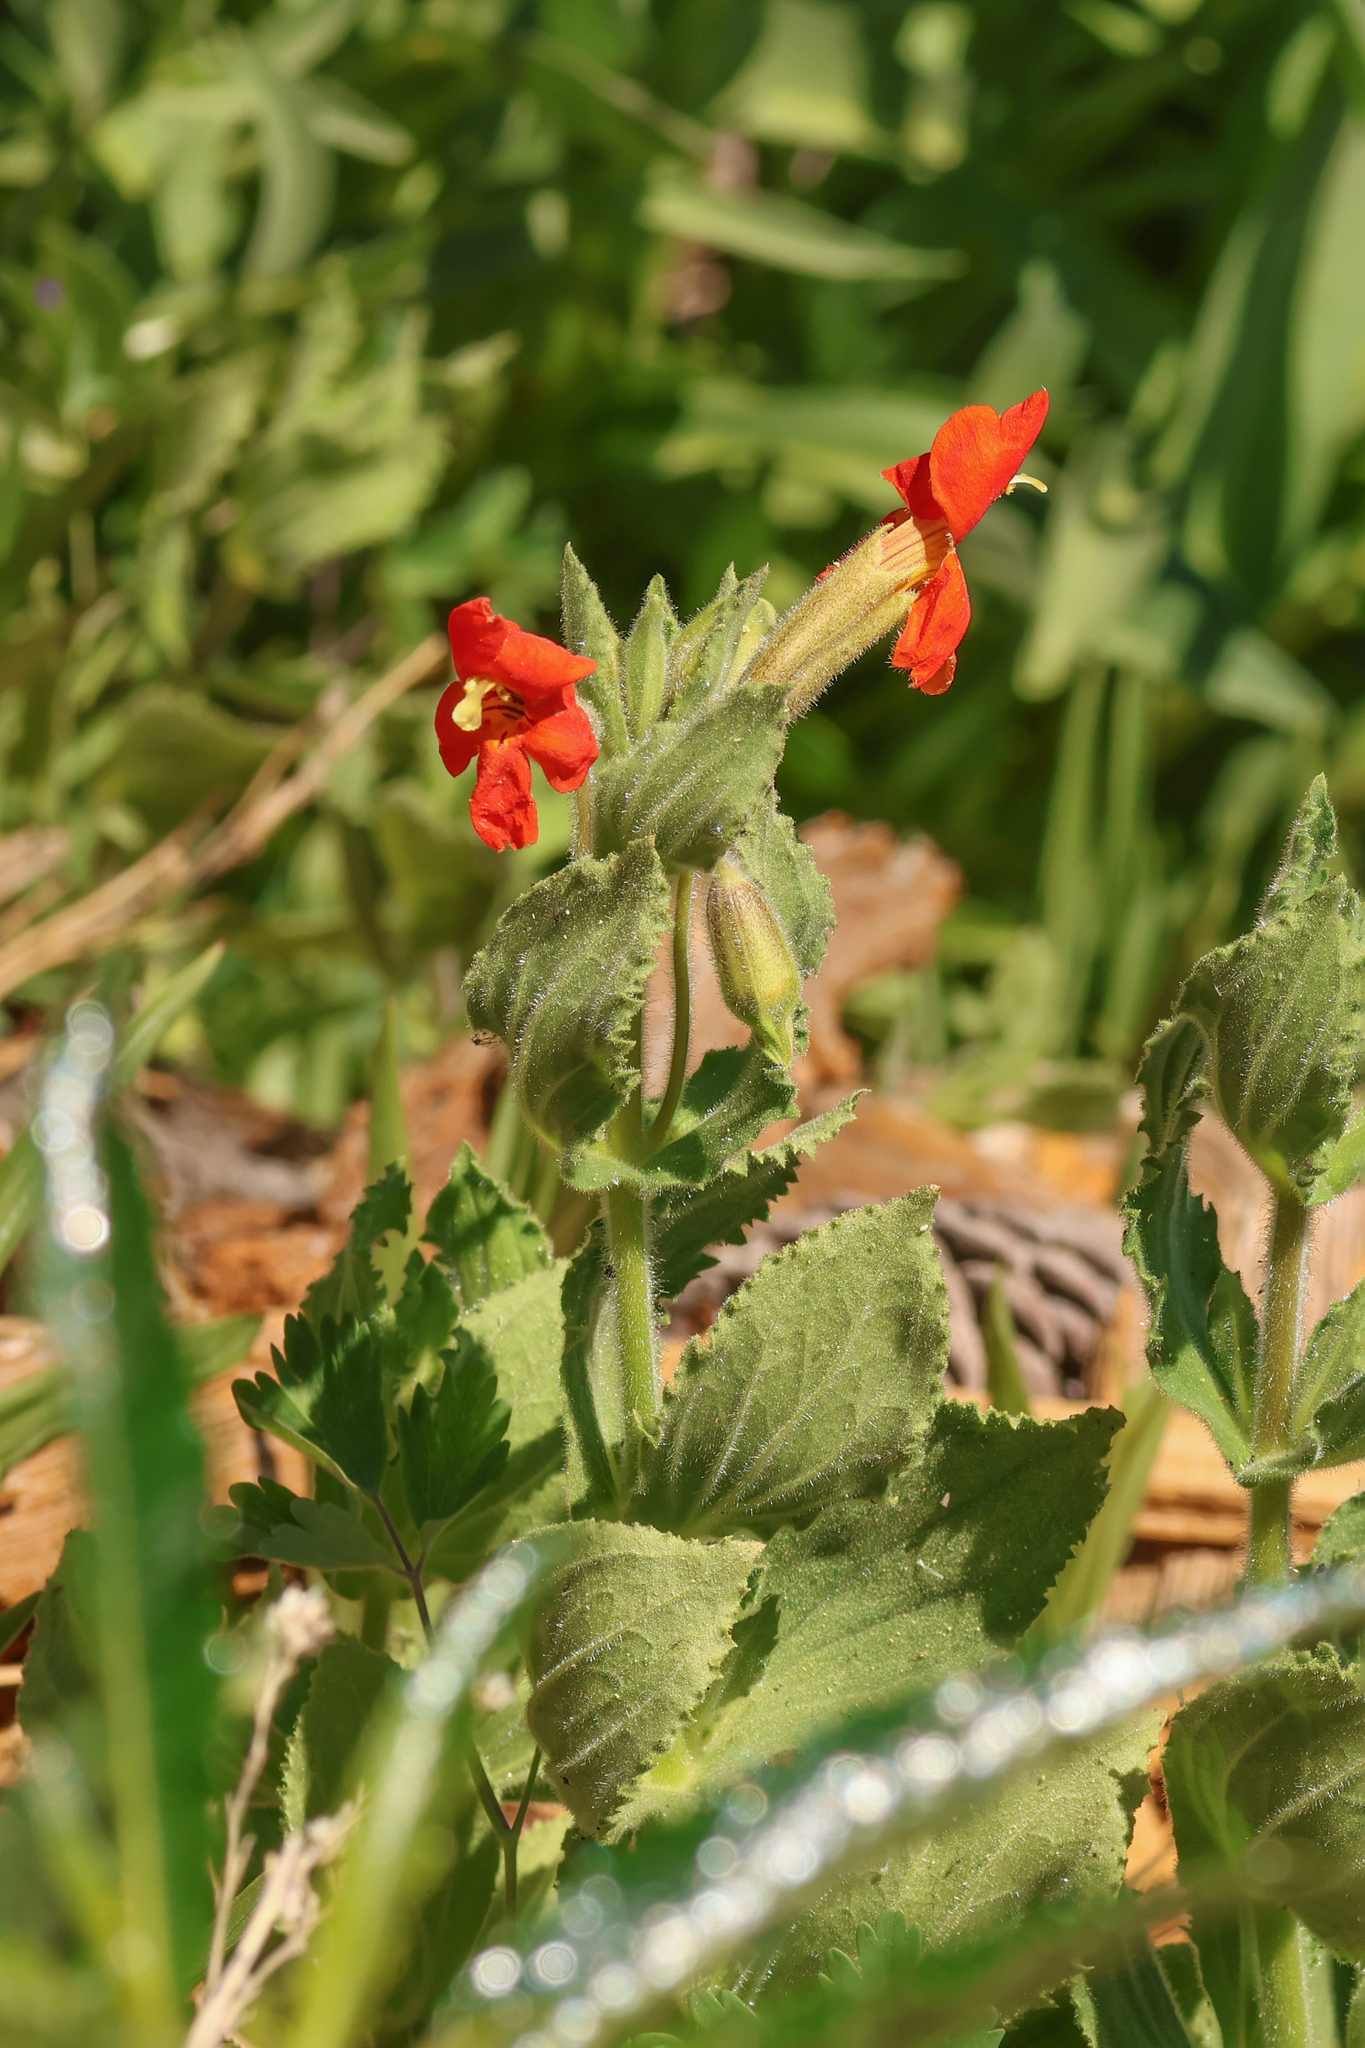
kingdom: Plantae
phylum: Tracheophyta
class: Magnoliopsida
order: Lamiales
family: Phrymaceae
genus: Erythranthe
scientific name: Erythranthe cardinalis
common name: Scarlet monkey-flower
